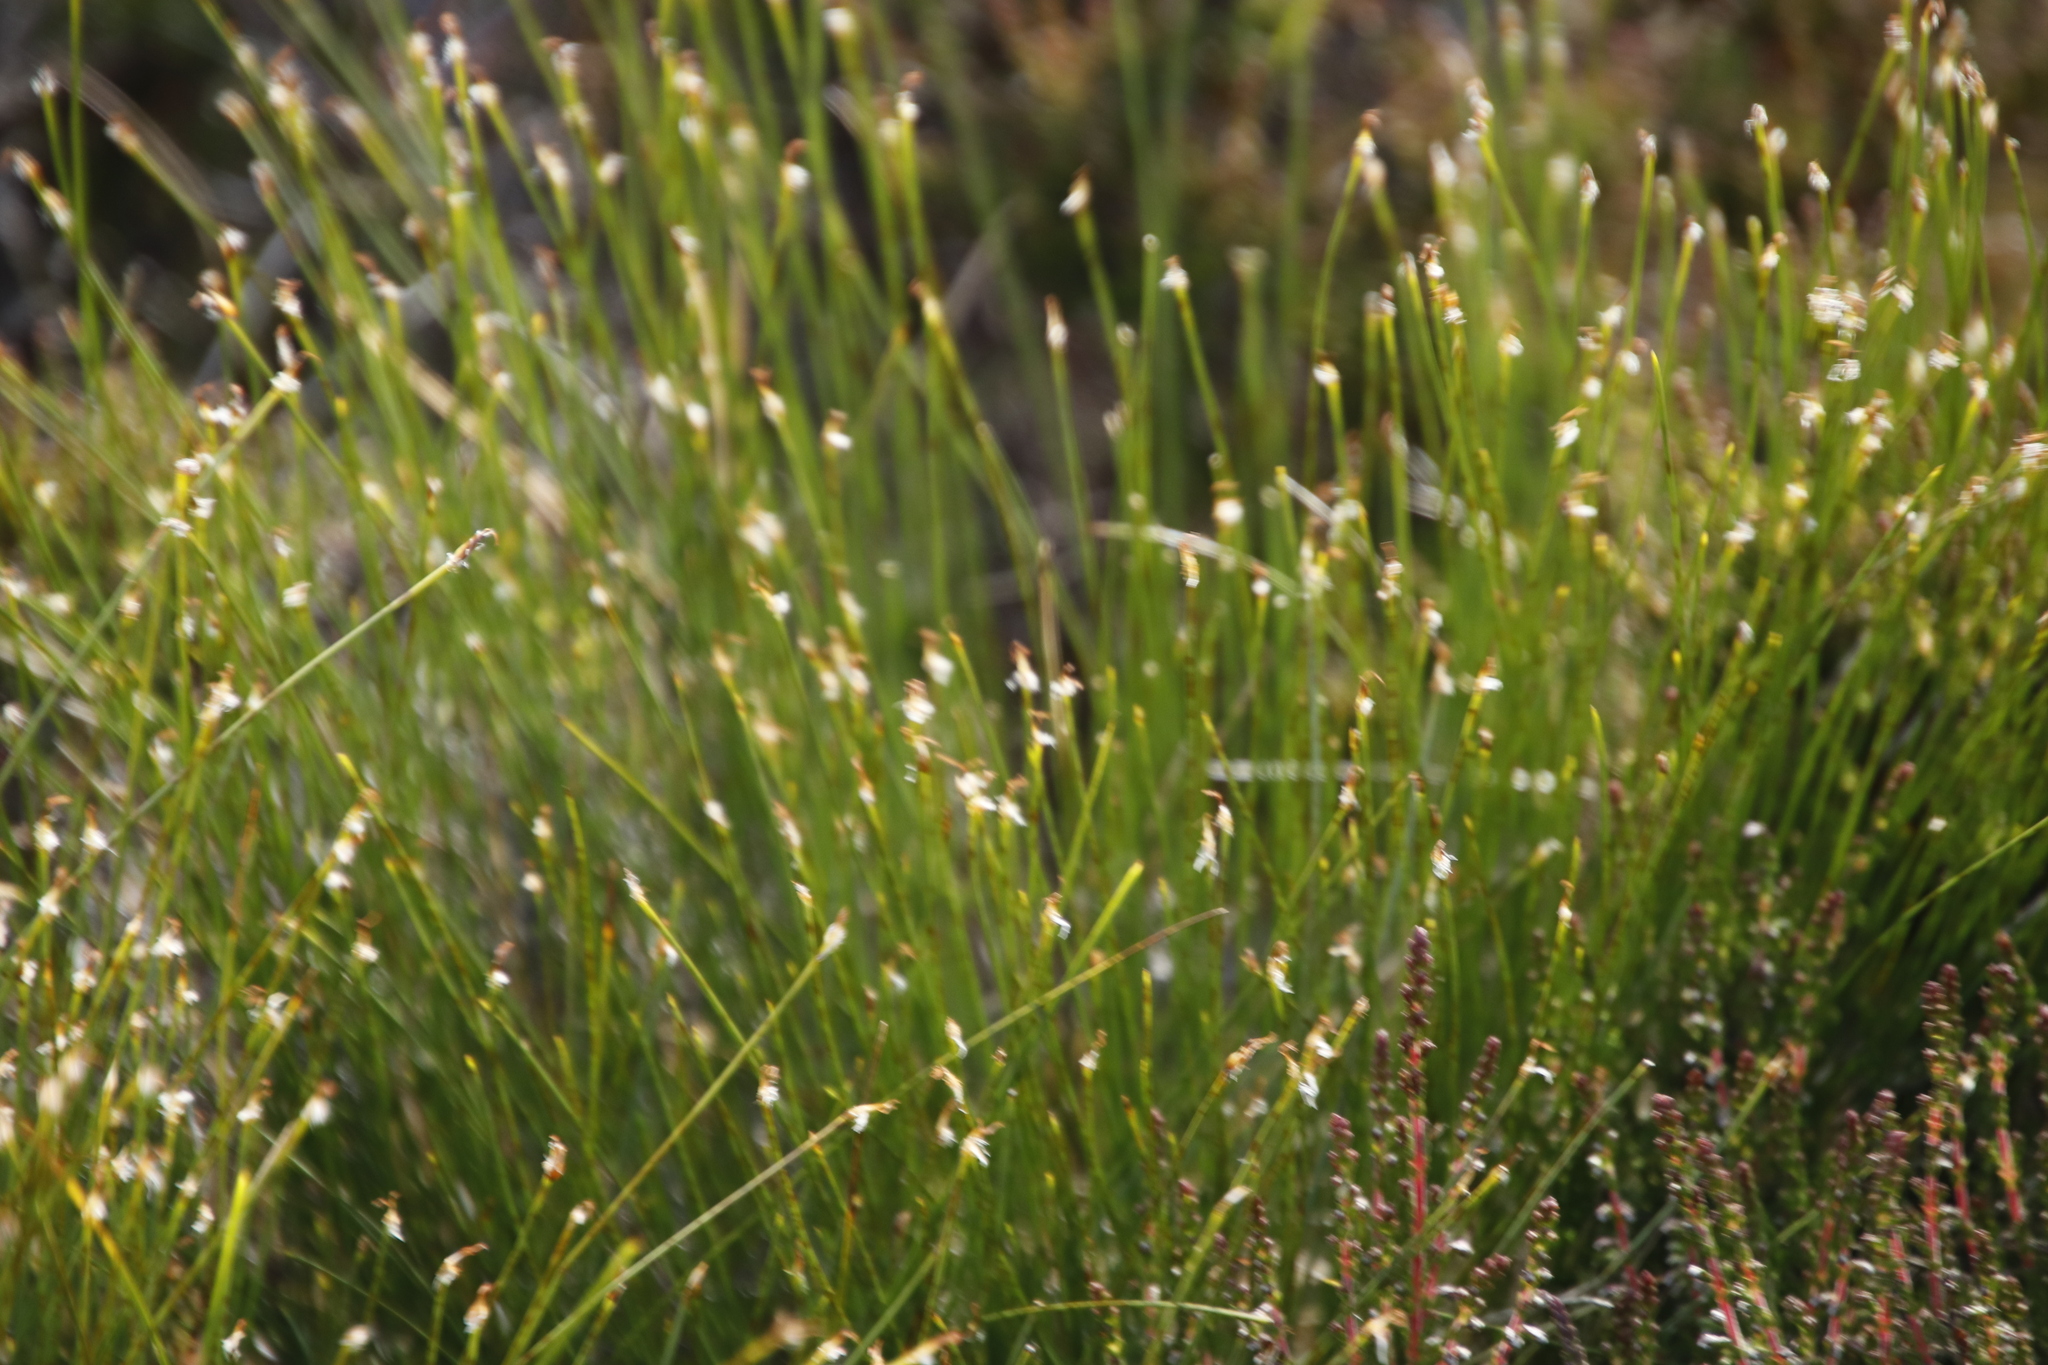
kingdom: Plantae
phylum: Tracheophyta
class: Liliopsida
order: Poales
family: Cyperaceae
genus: Trichophorum
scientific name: Trichophorum cespitosum
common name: Cespitose bulrush
